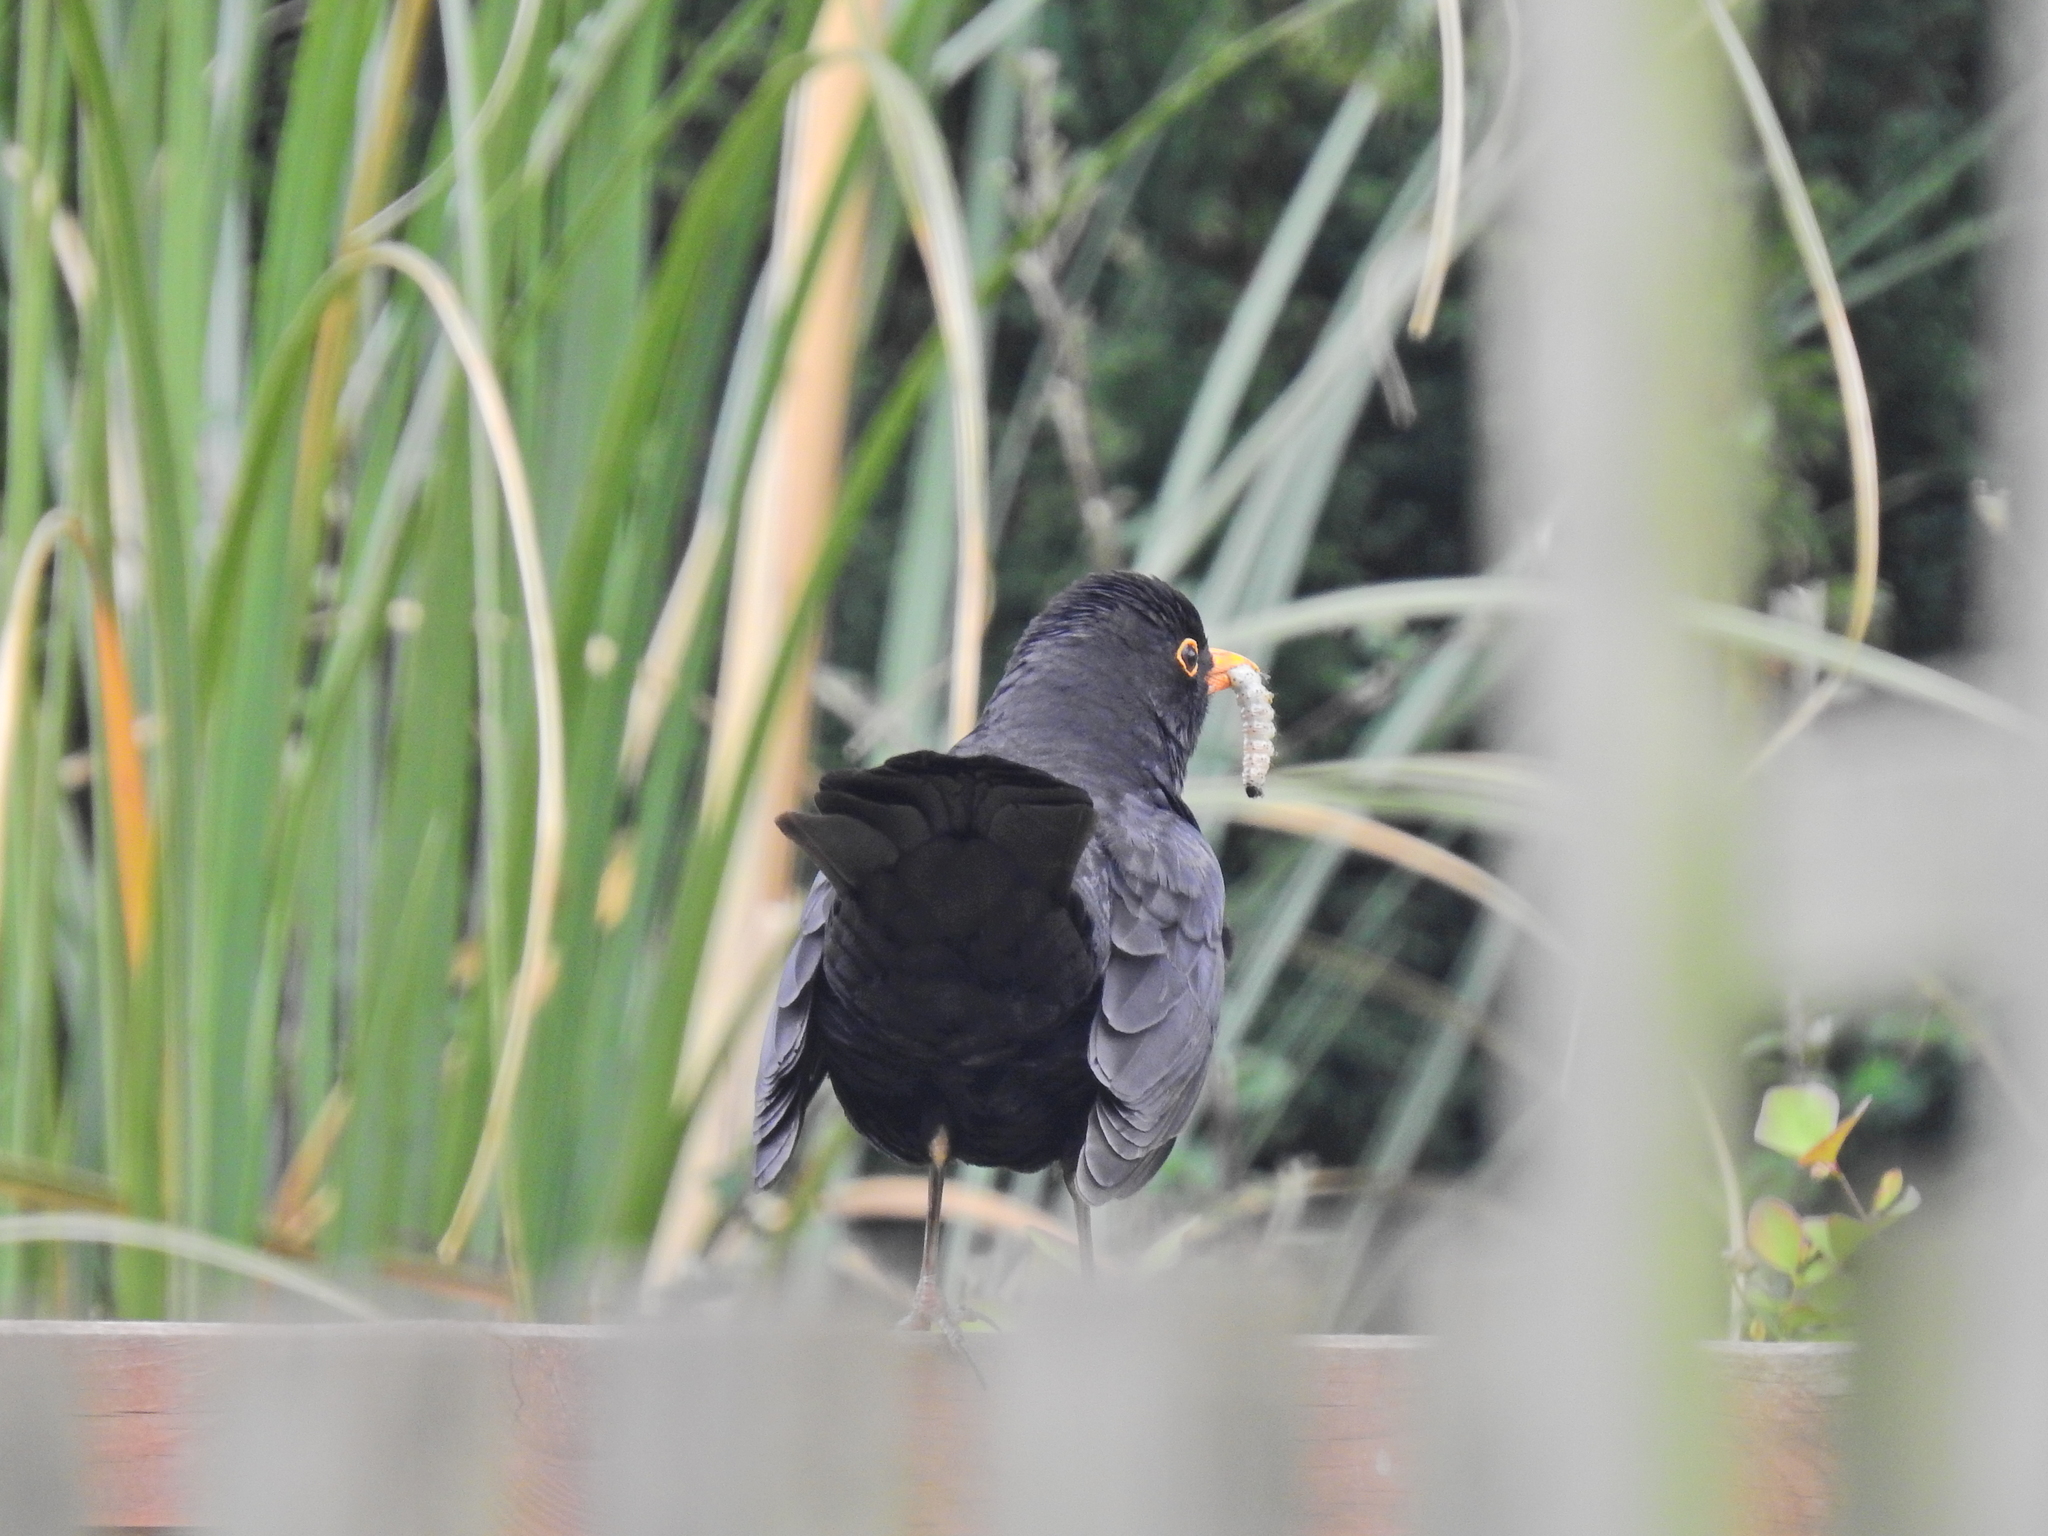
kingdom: Animalia
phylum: Chordata
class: Aves
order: Passeriformes
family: Turdidae
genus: Turdus
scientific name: Turdus merula
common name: Common blackbird
